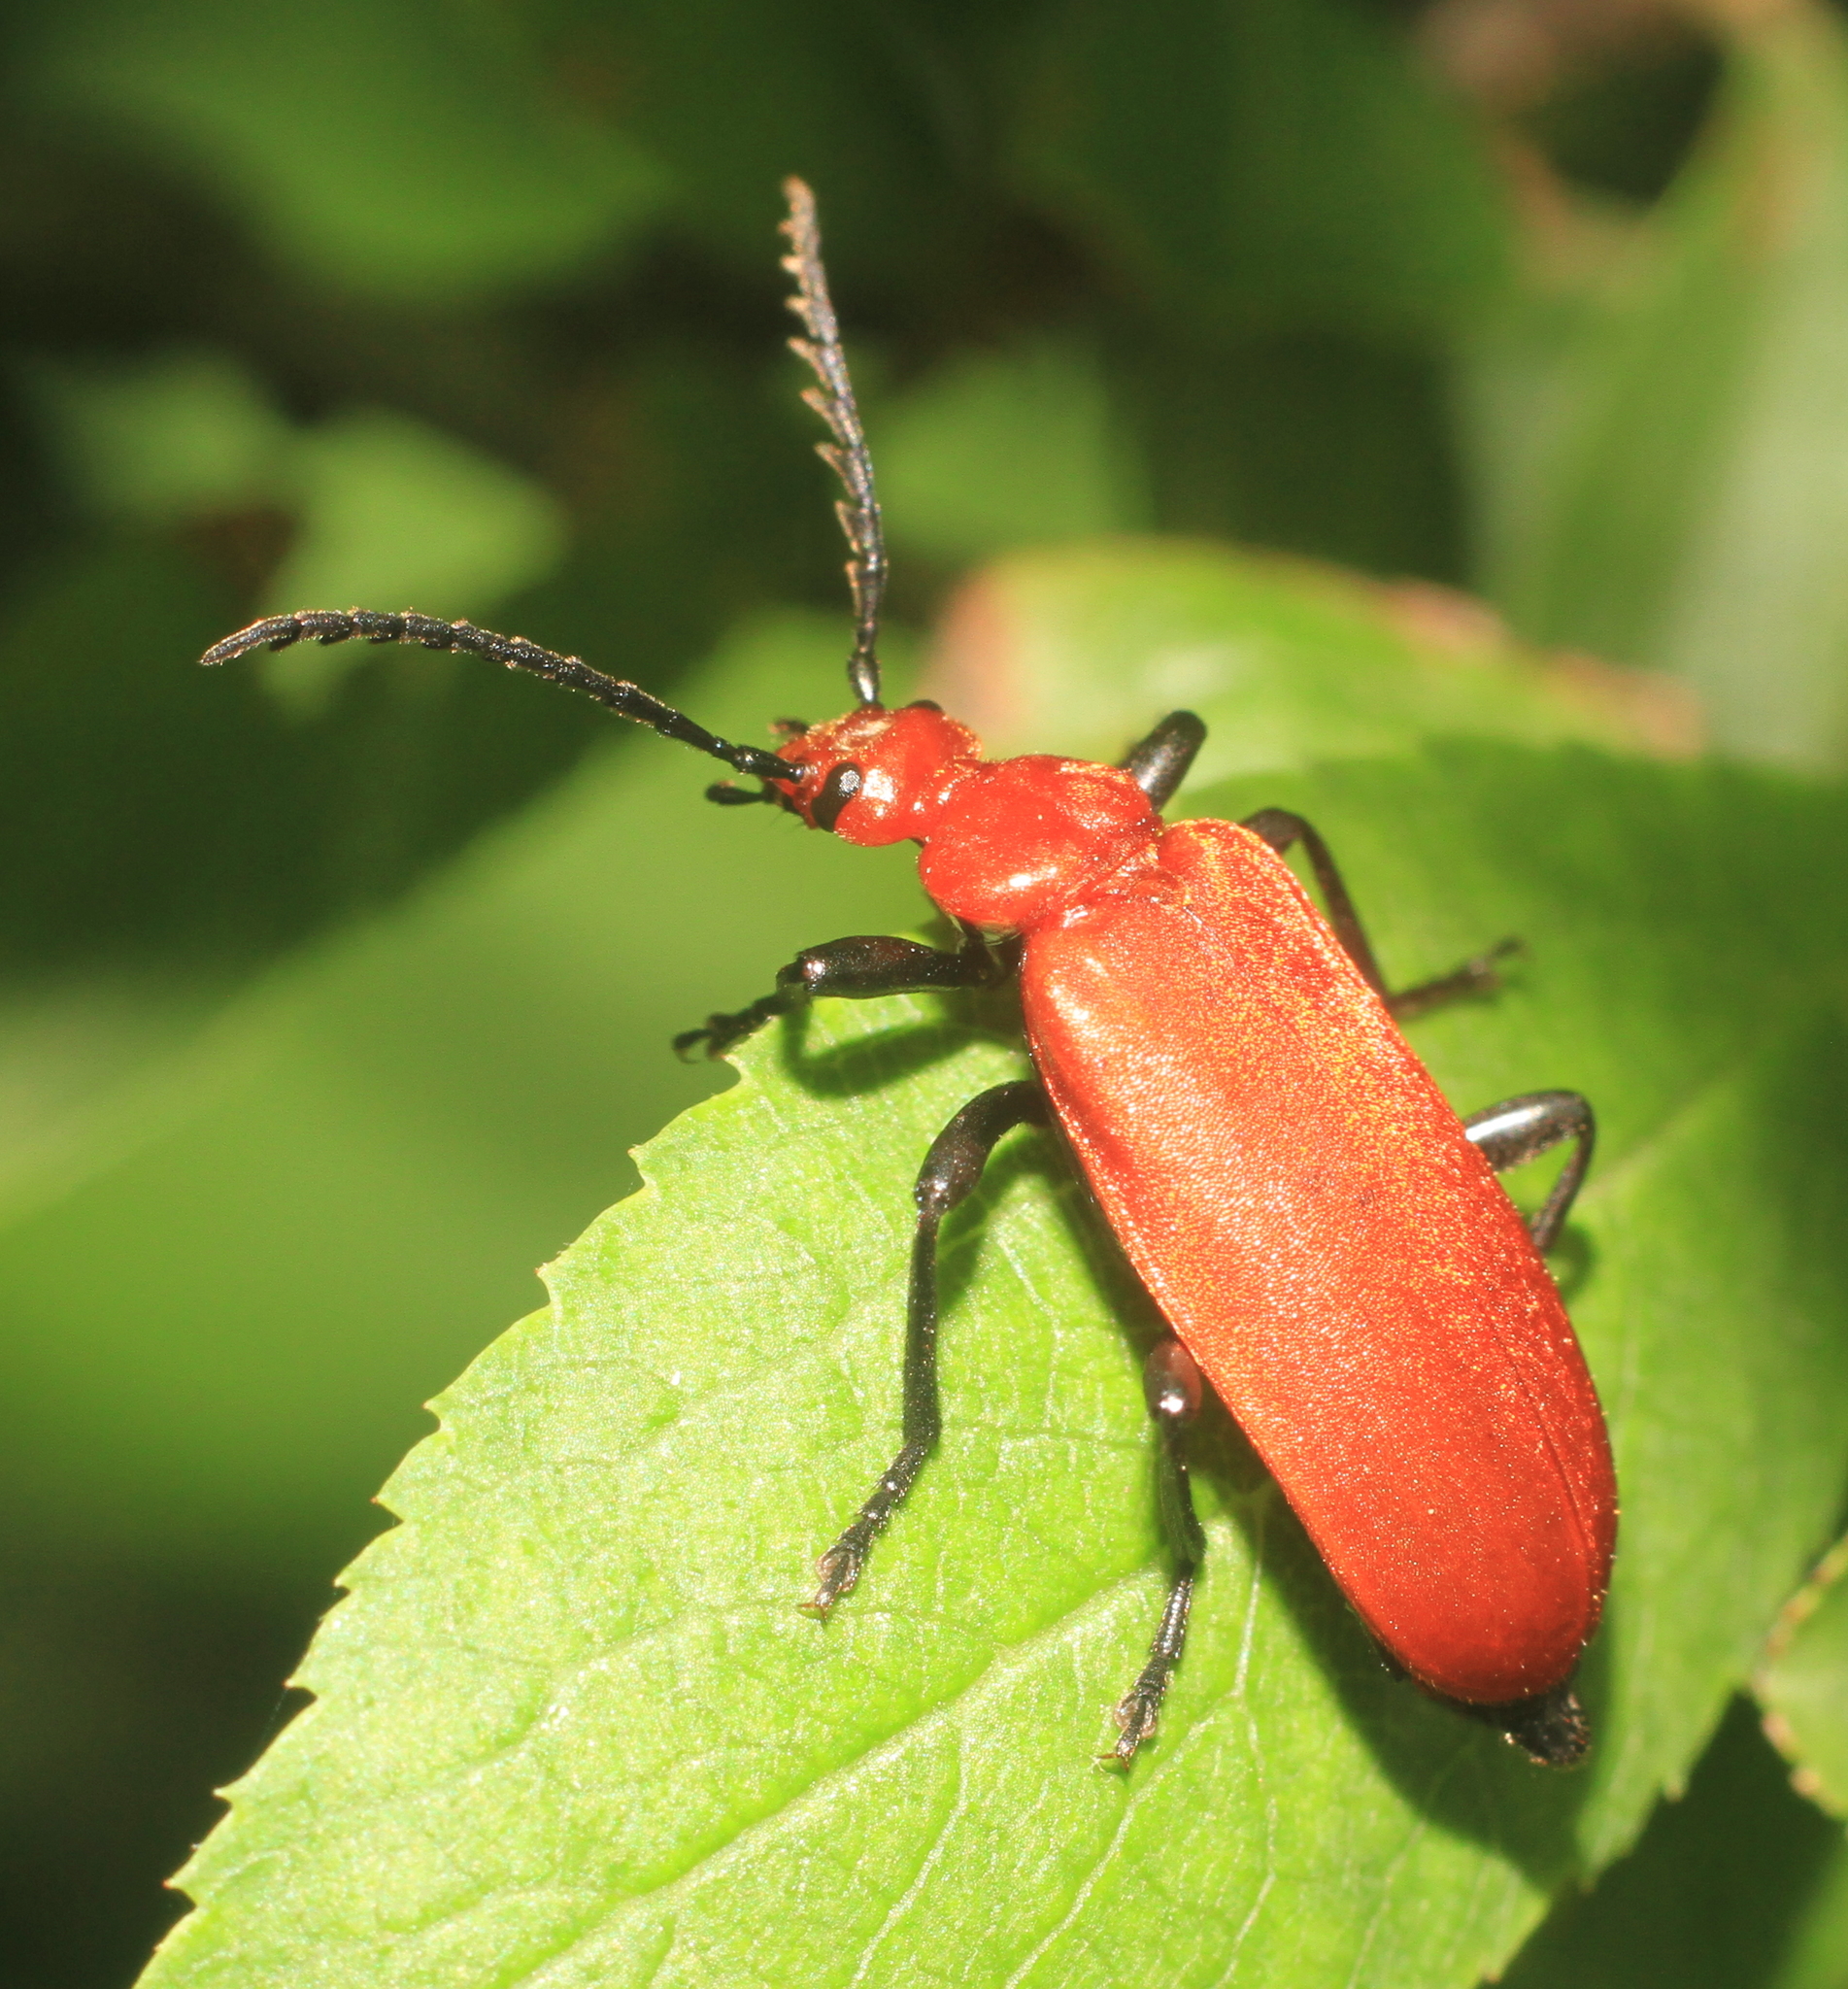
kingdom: Animalia
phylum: Arthropoda
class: Insecta
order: Coleoptera
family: Pyrochroidae
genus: Pyrochroa
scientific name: Pyrochroa serraticornis
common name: Red-headed cardinal beetle
